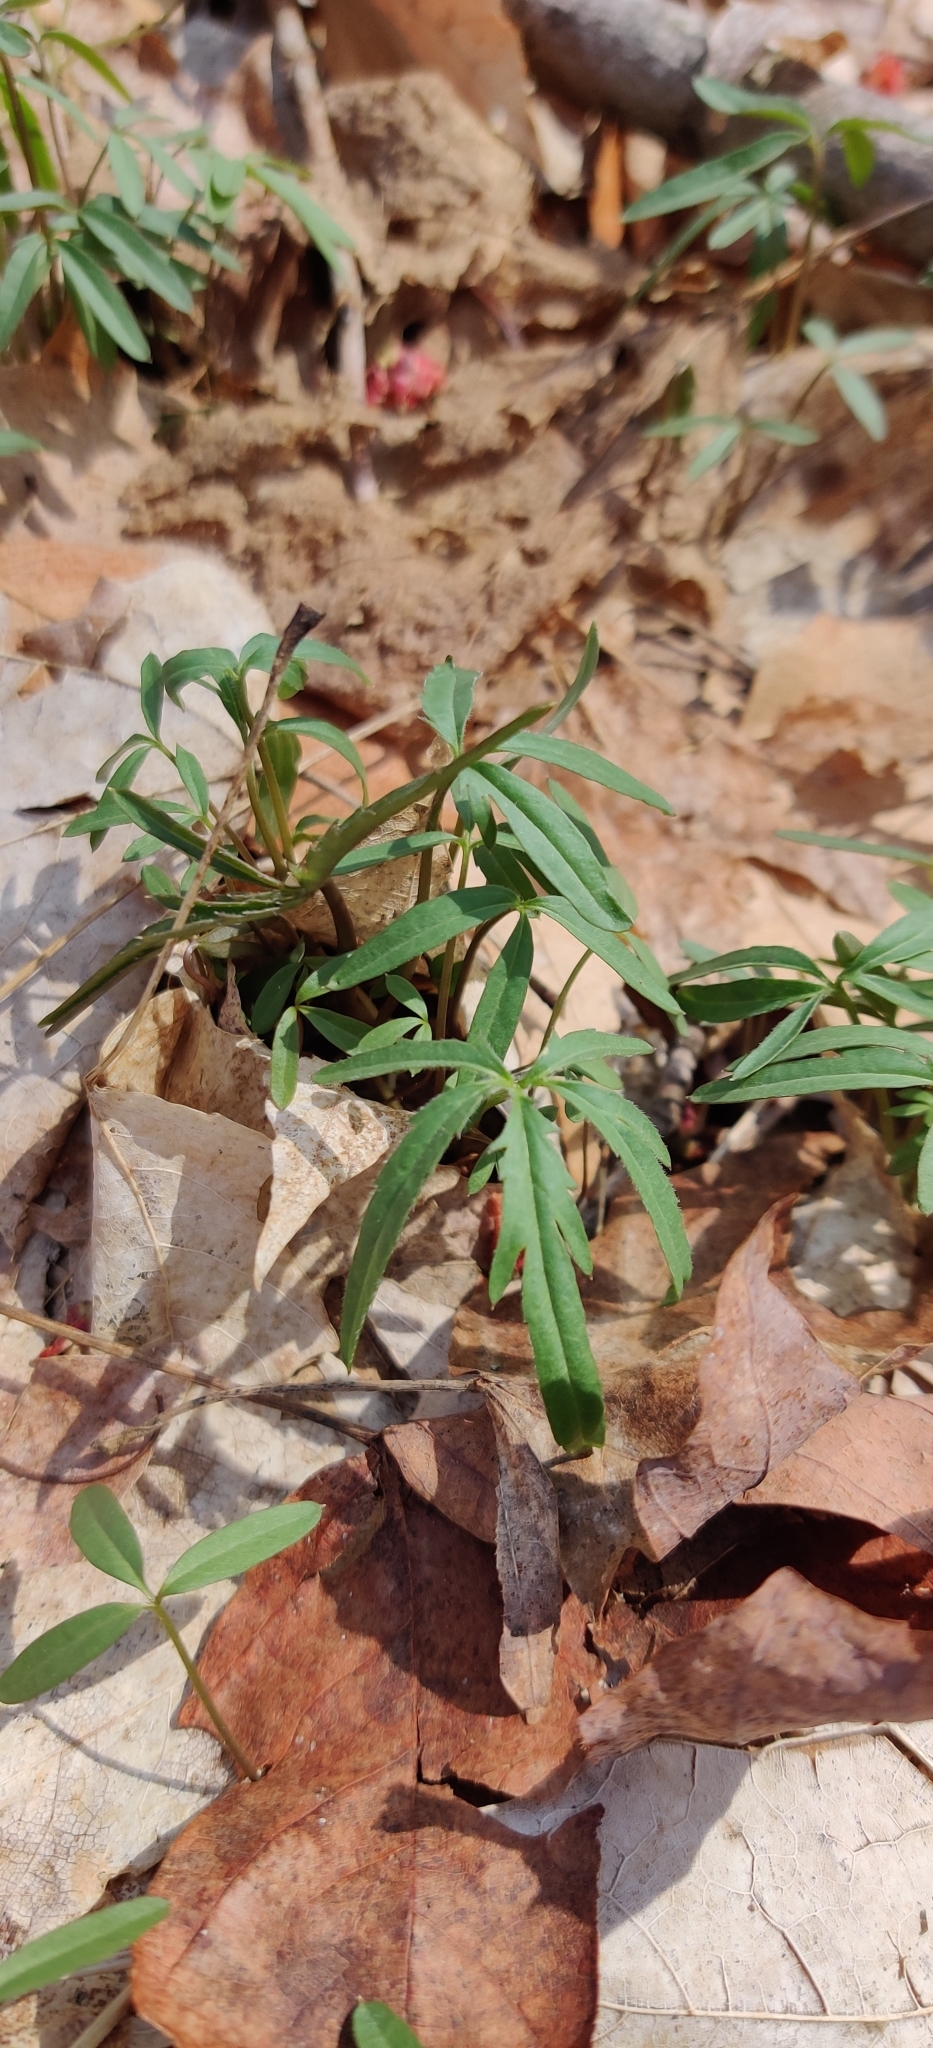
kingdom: Plantae
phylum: Tracheophyta
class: Magnoliopsida
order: Brassicales
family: Brassicaceae
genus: Cardamine
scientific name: Cardamine concatenata
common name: Cut-leaf toothcup
